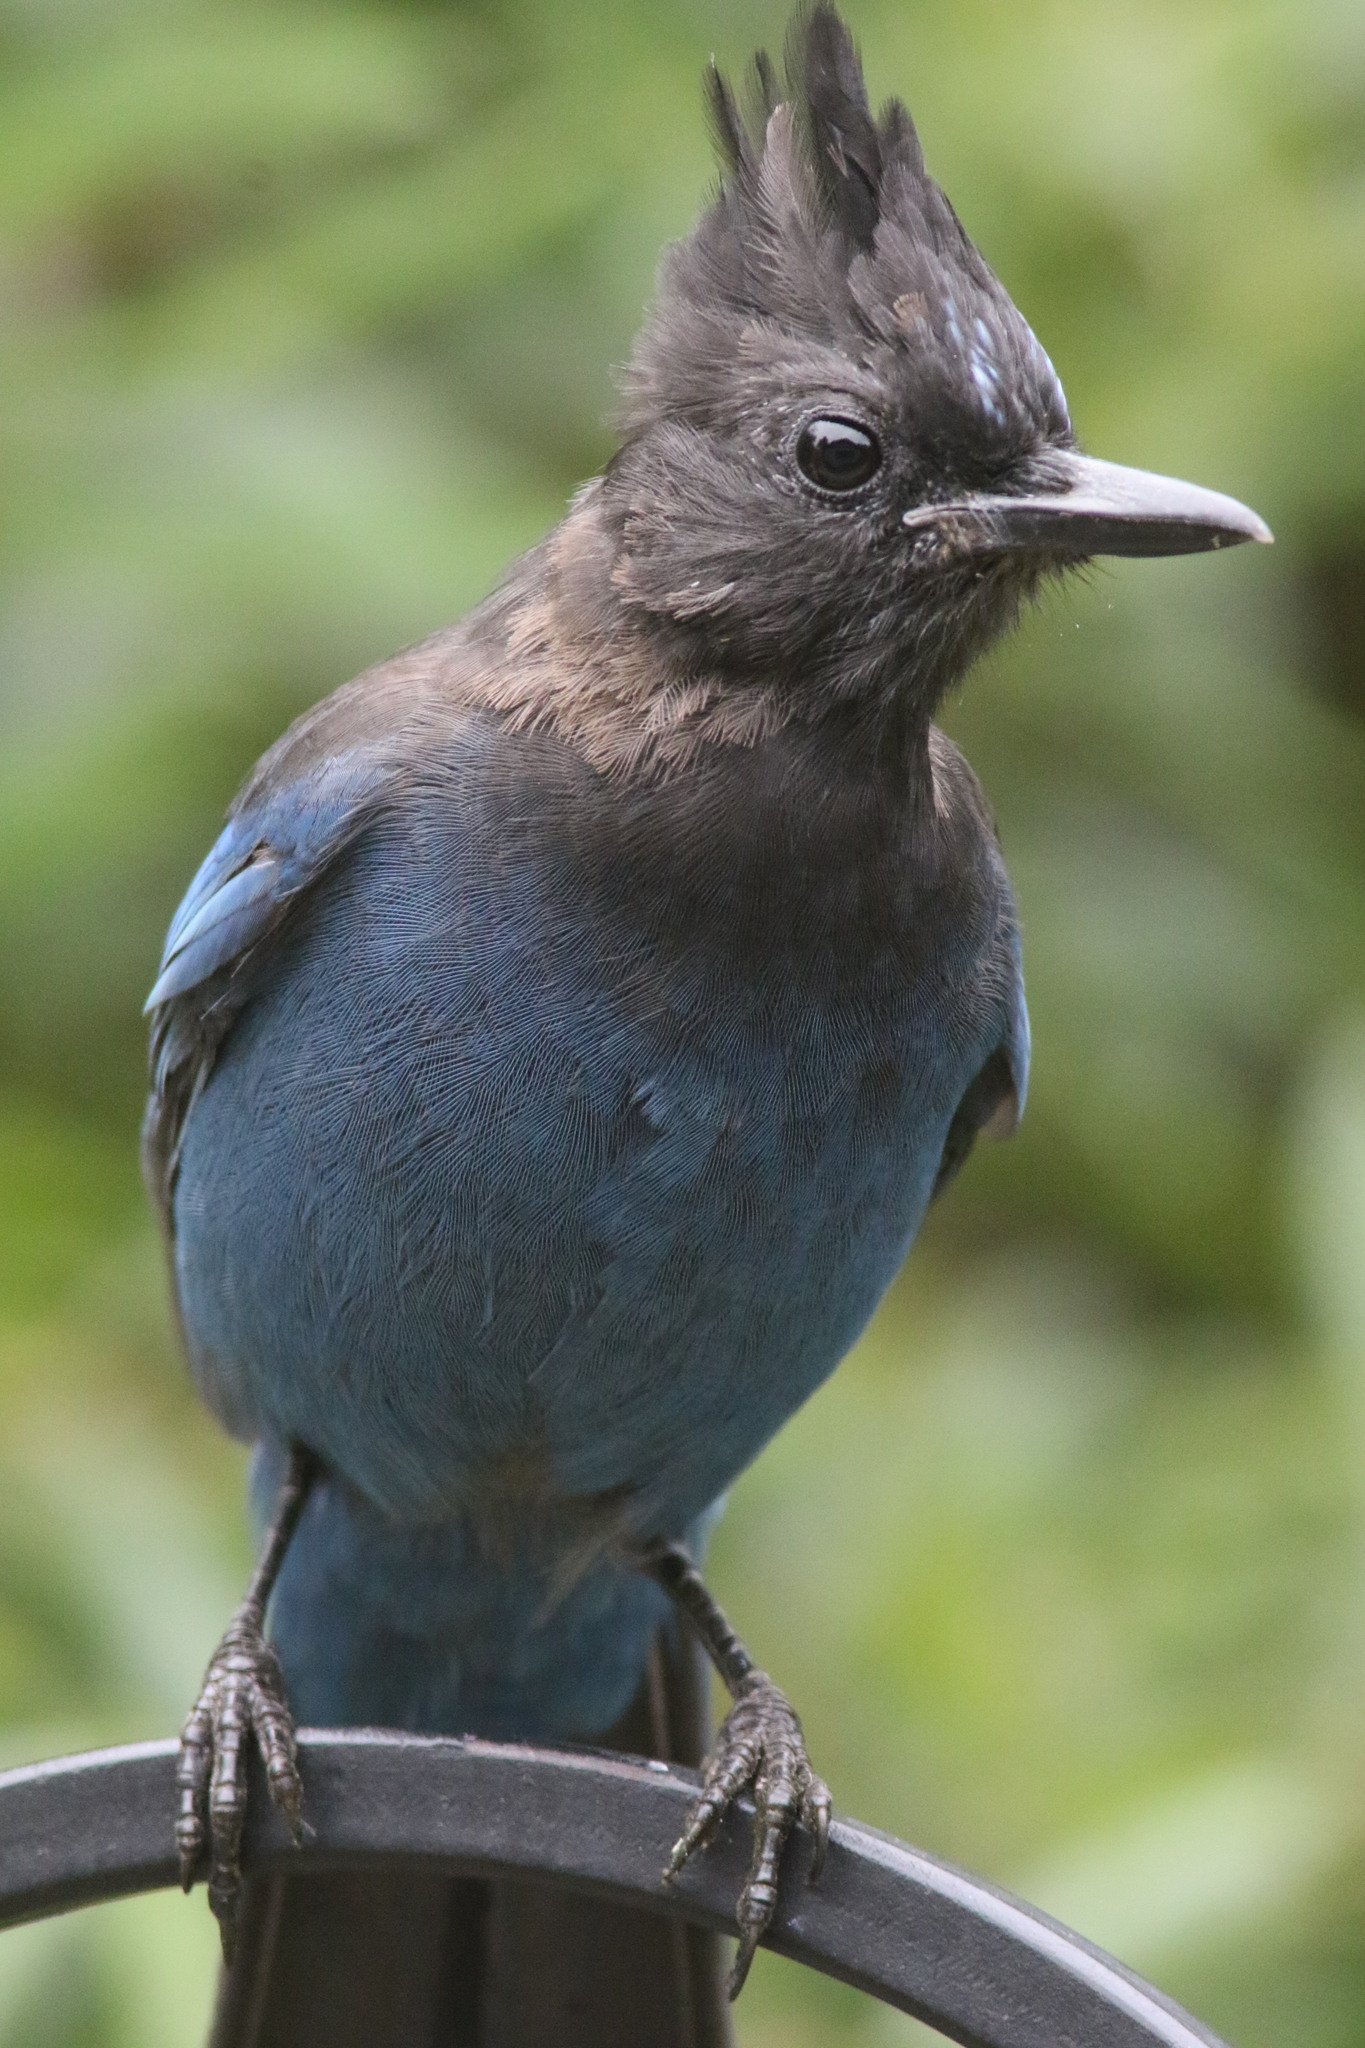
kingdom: Animalia
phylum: Chordata
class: Aves
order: Passeriformes
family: Corvidae
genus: Cyanocitta
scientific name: Cyanocitta stelleri
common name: Steller's jay
